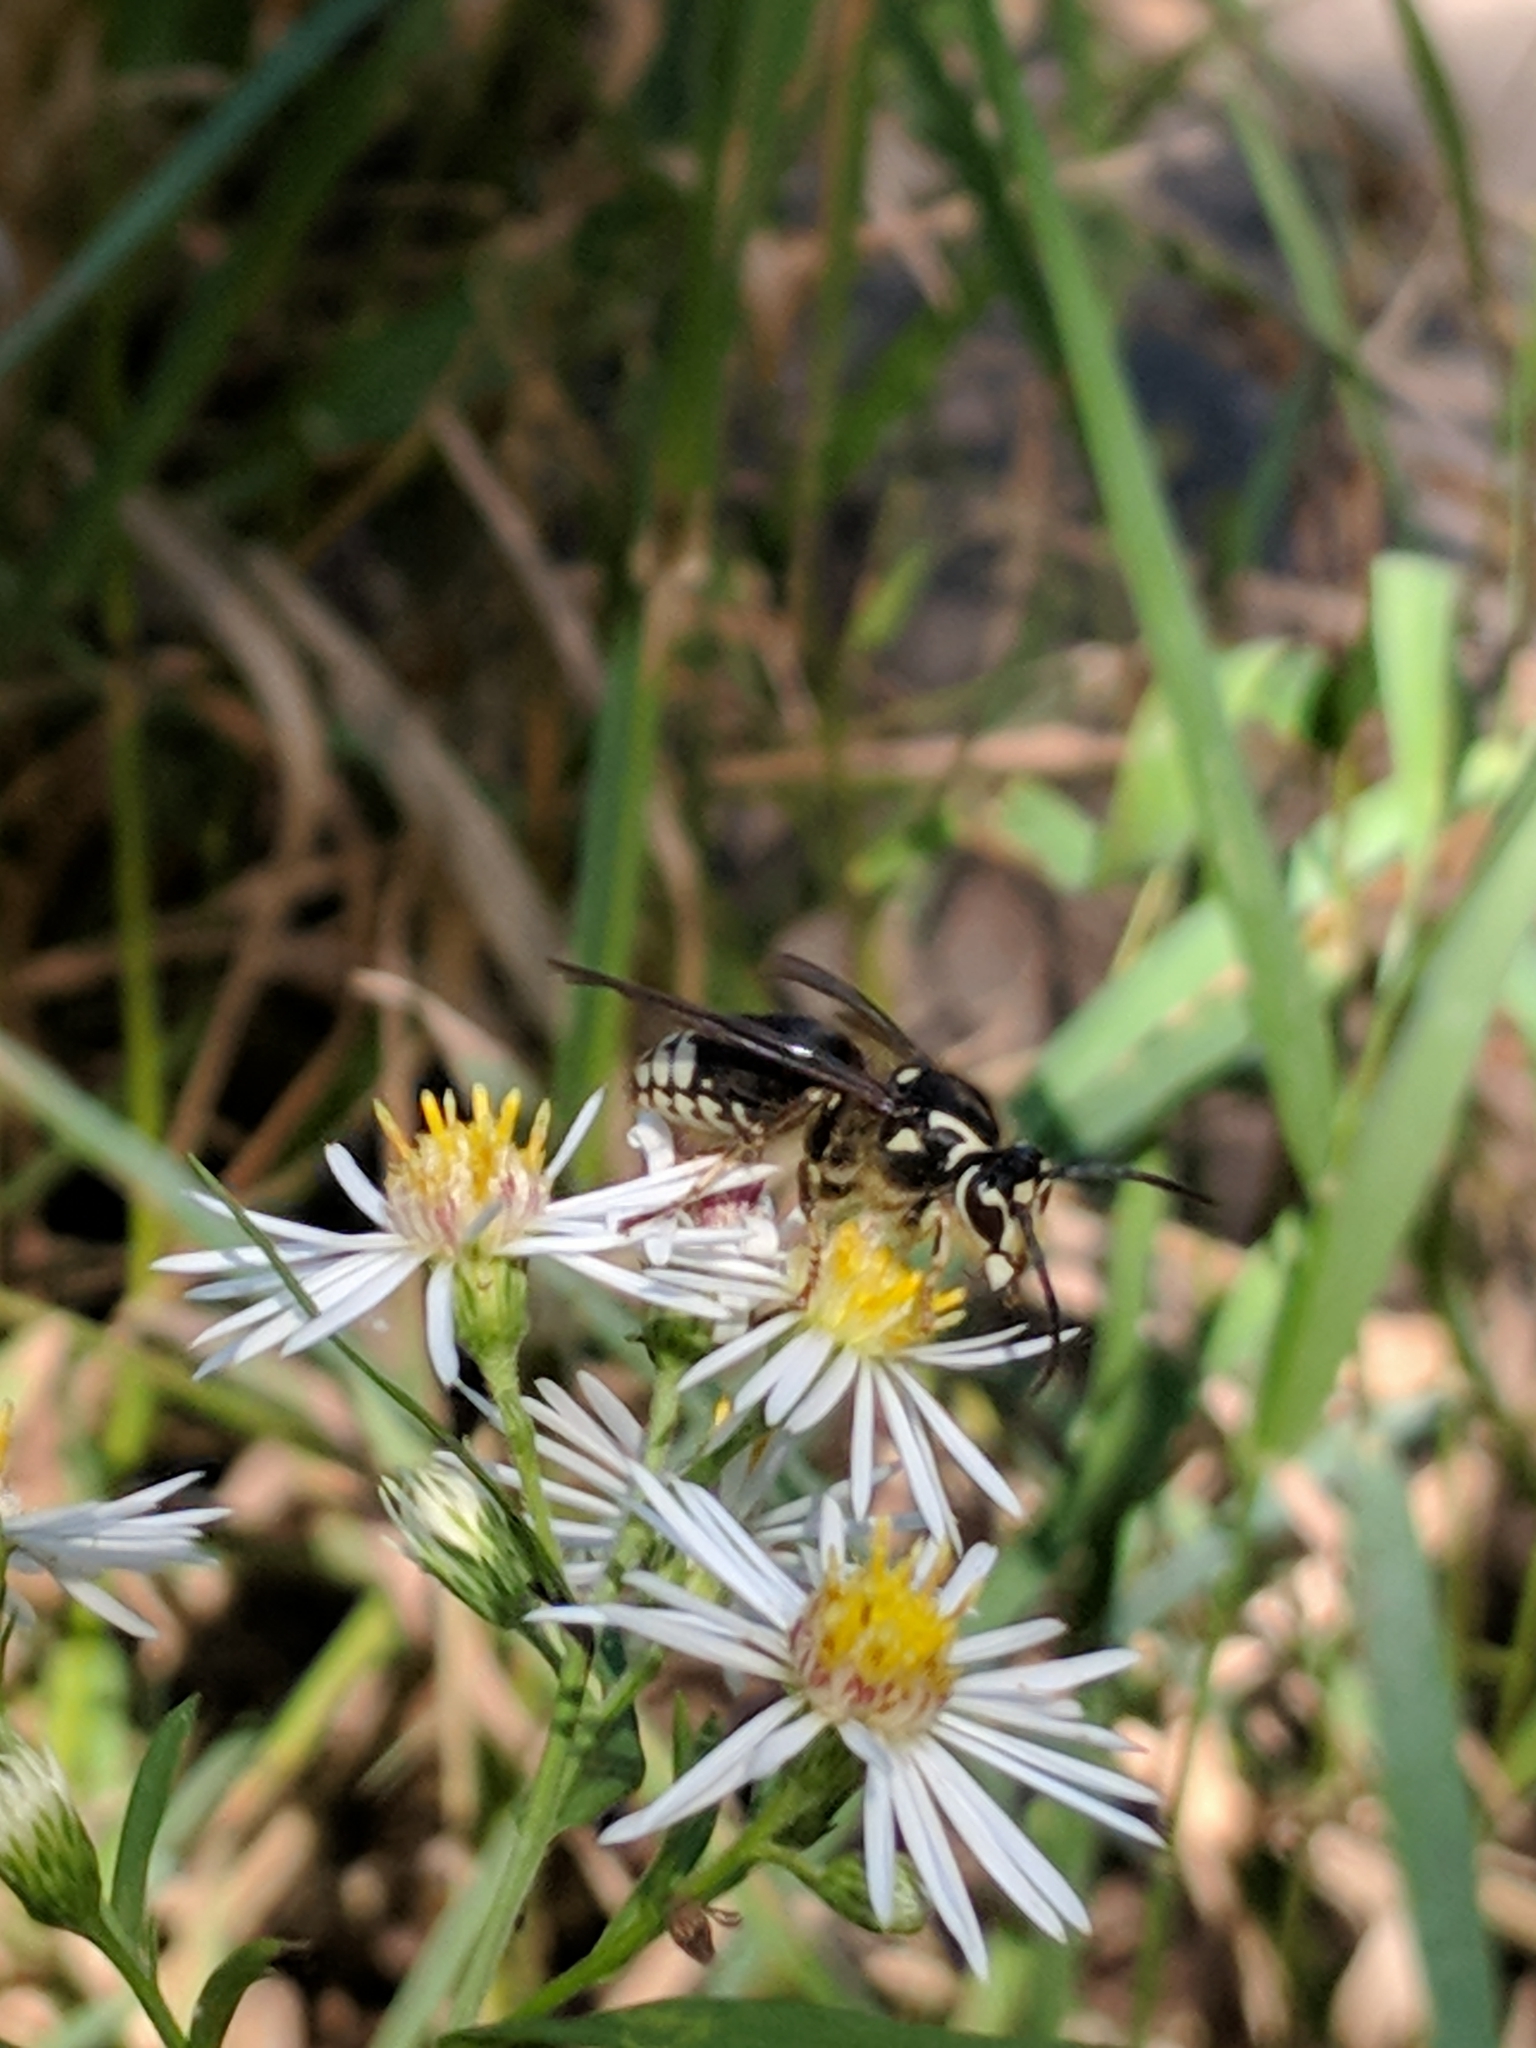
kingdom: Animalia
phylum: Arthropoda
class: Insecta
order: Hymenoptera
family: Vespidae
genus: Dolichovespula
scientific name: Dolichovespula maculata
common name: Bald-faced hornet
